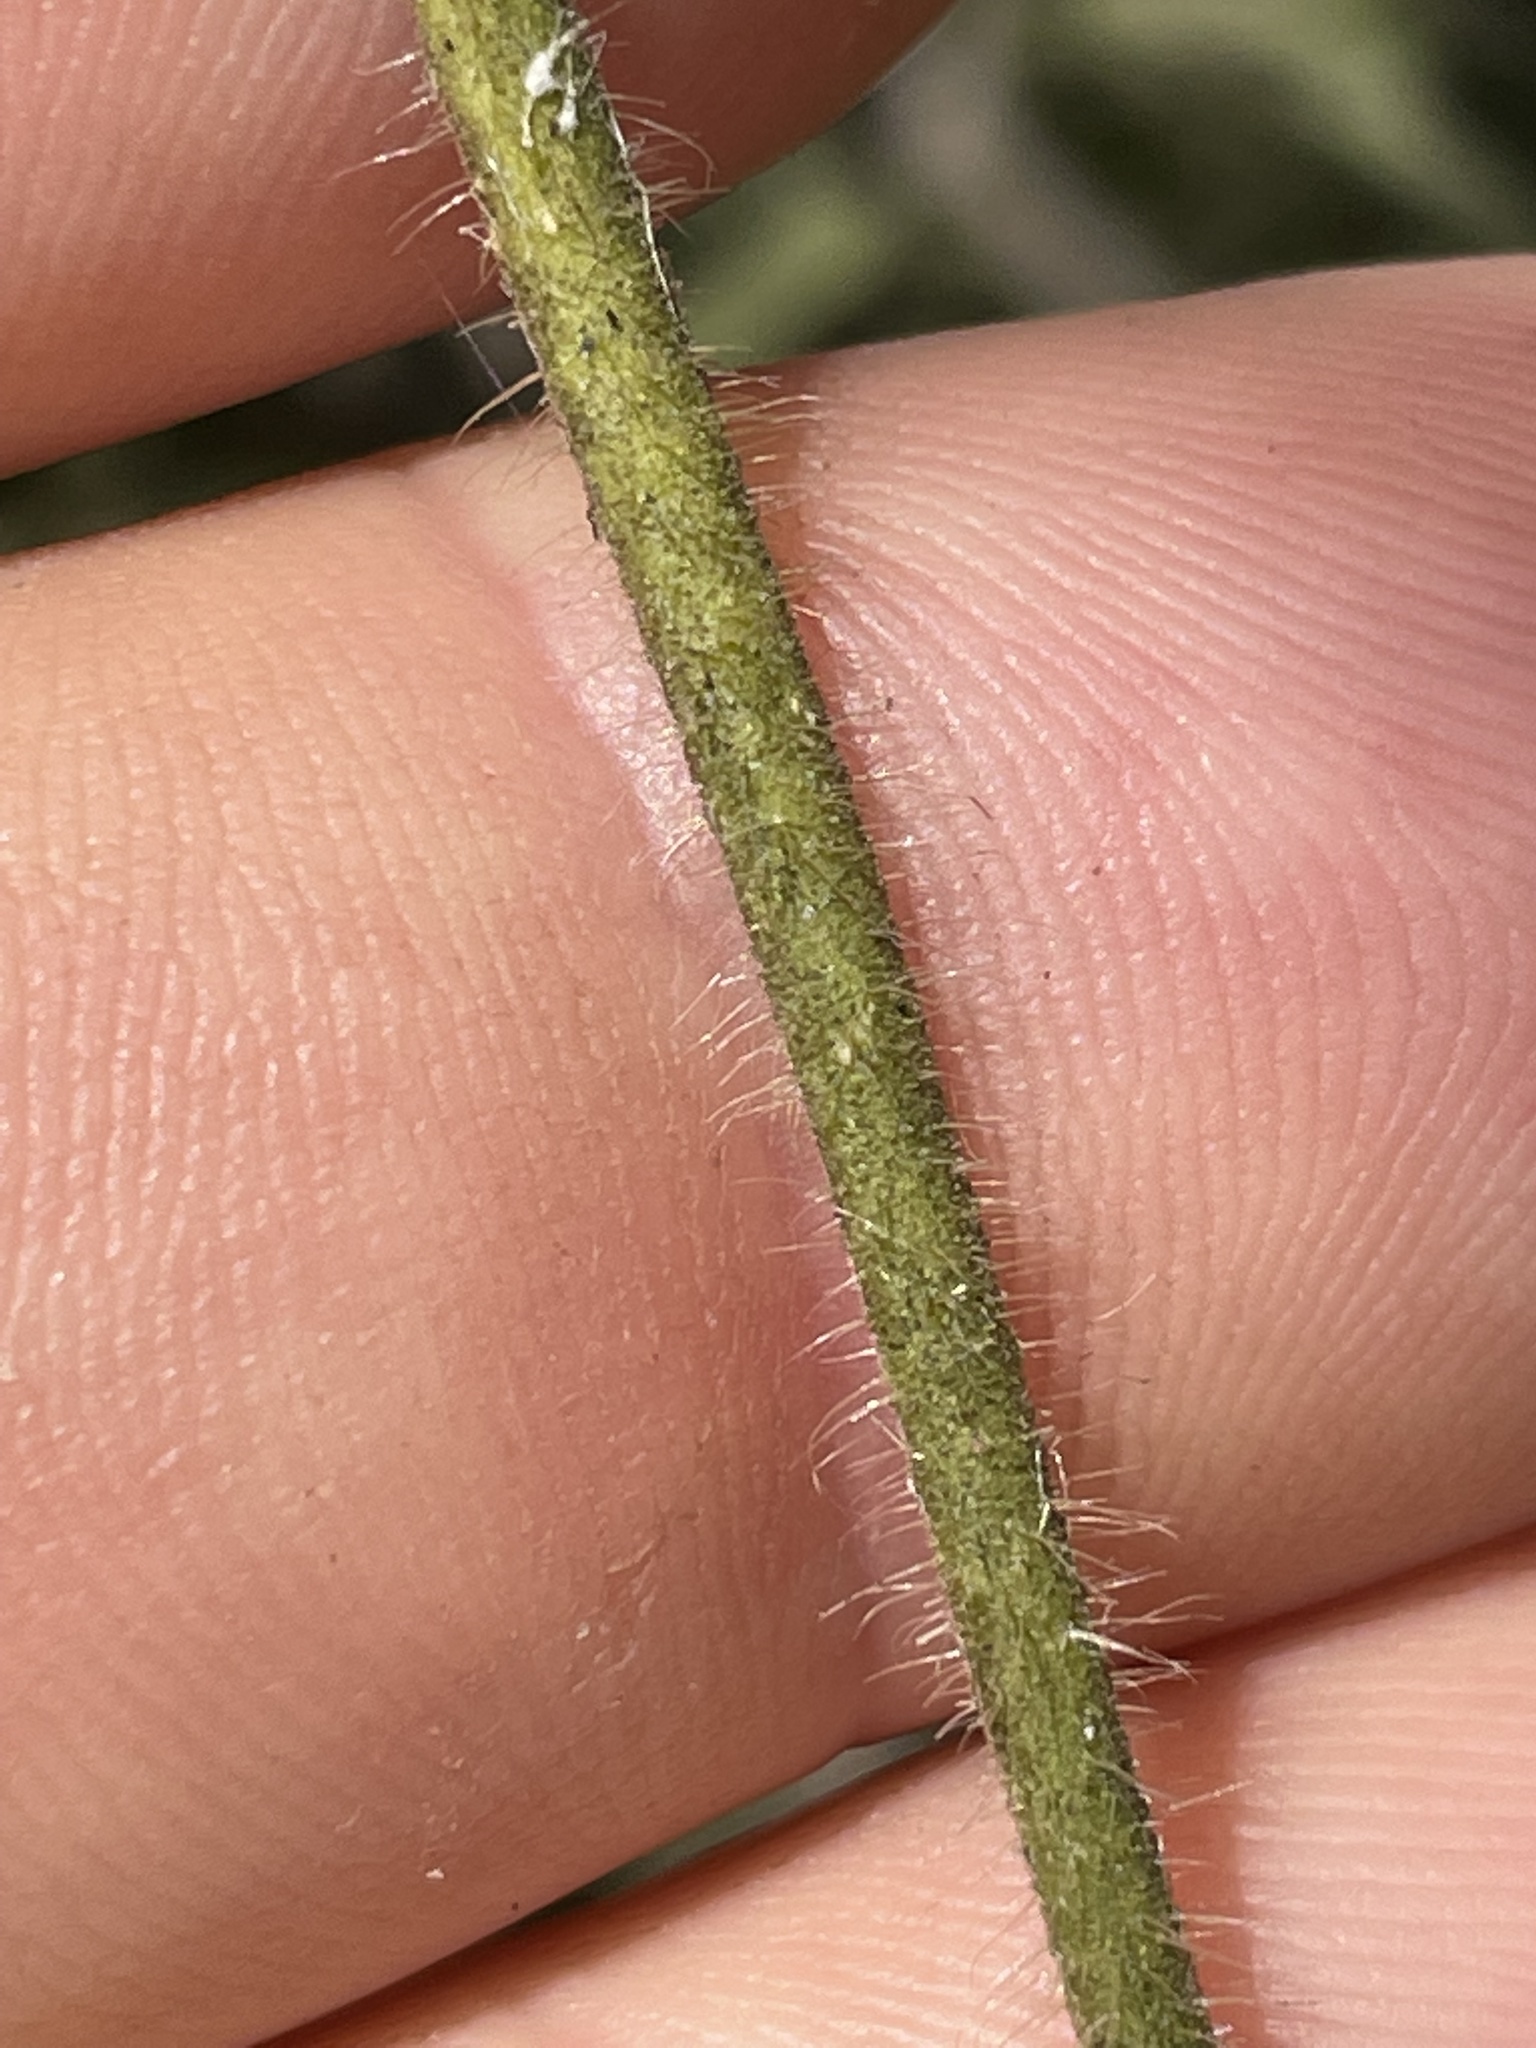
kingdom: Plantae
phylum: Tracheophyta
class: Magnoliopsida
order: Gentianales
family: Apocynaceae
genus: Dictyanthus
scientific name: Dictyanthus reticulatus
